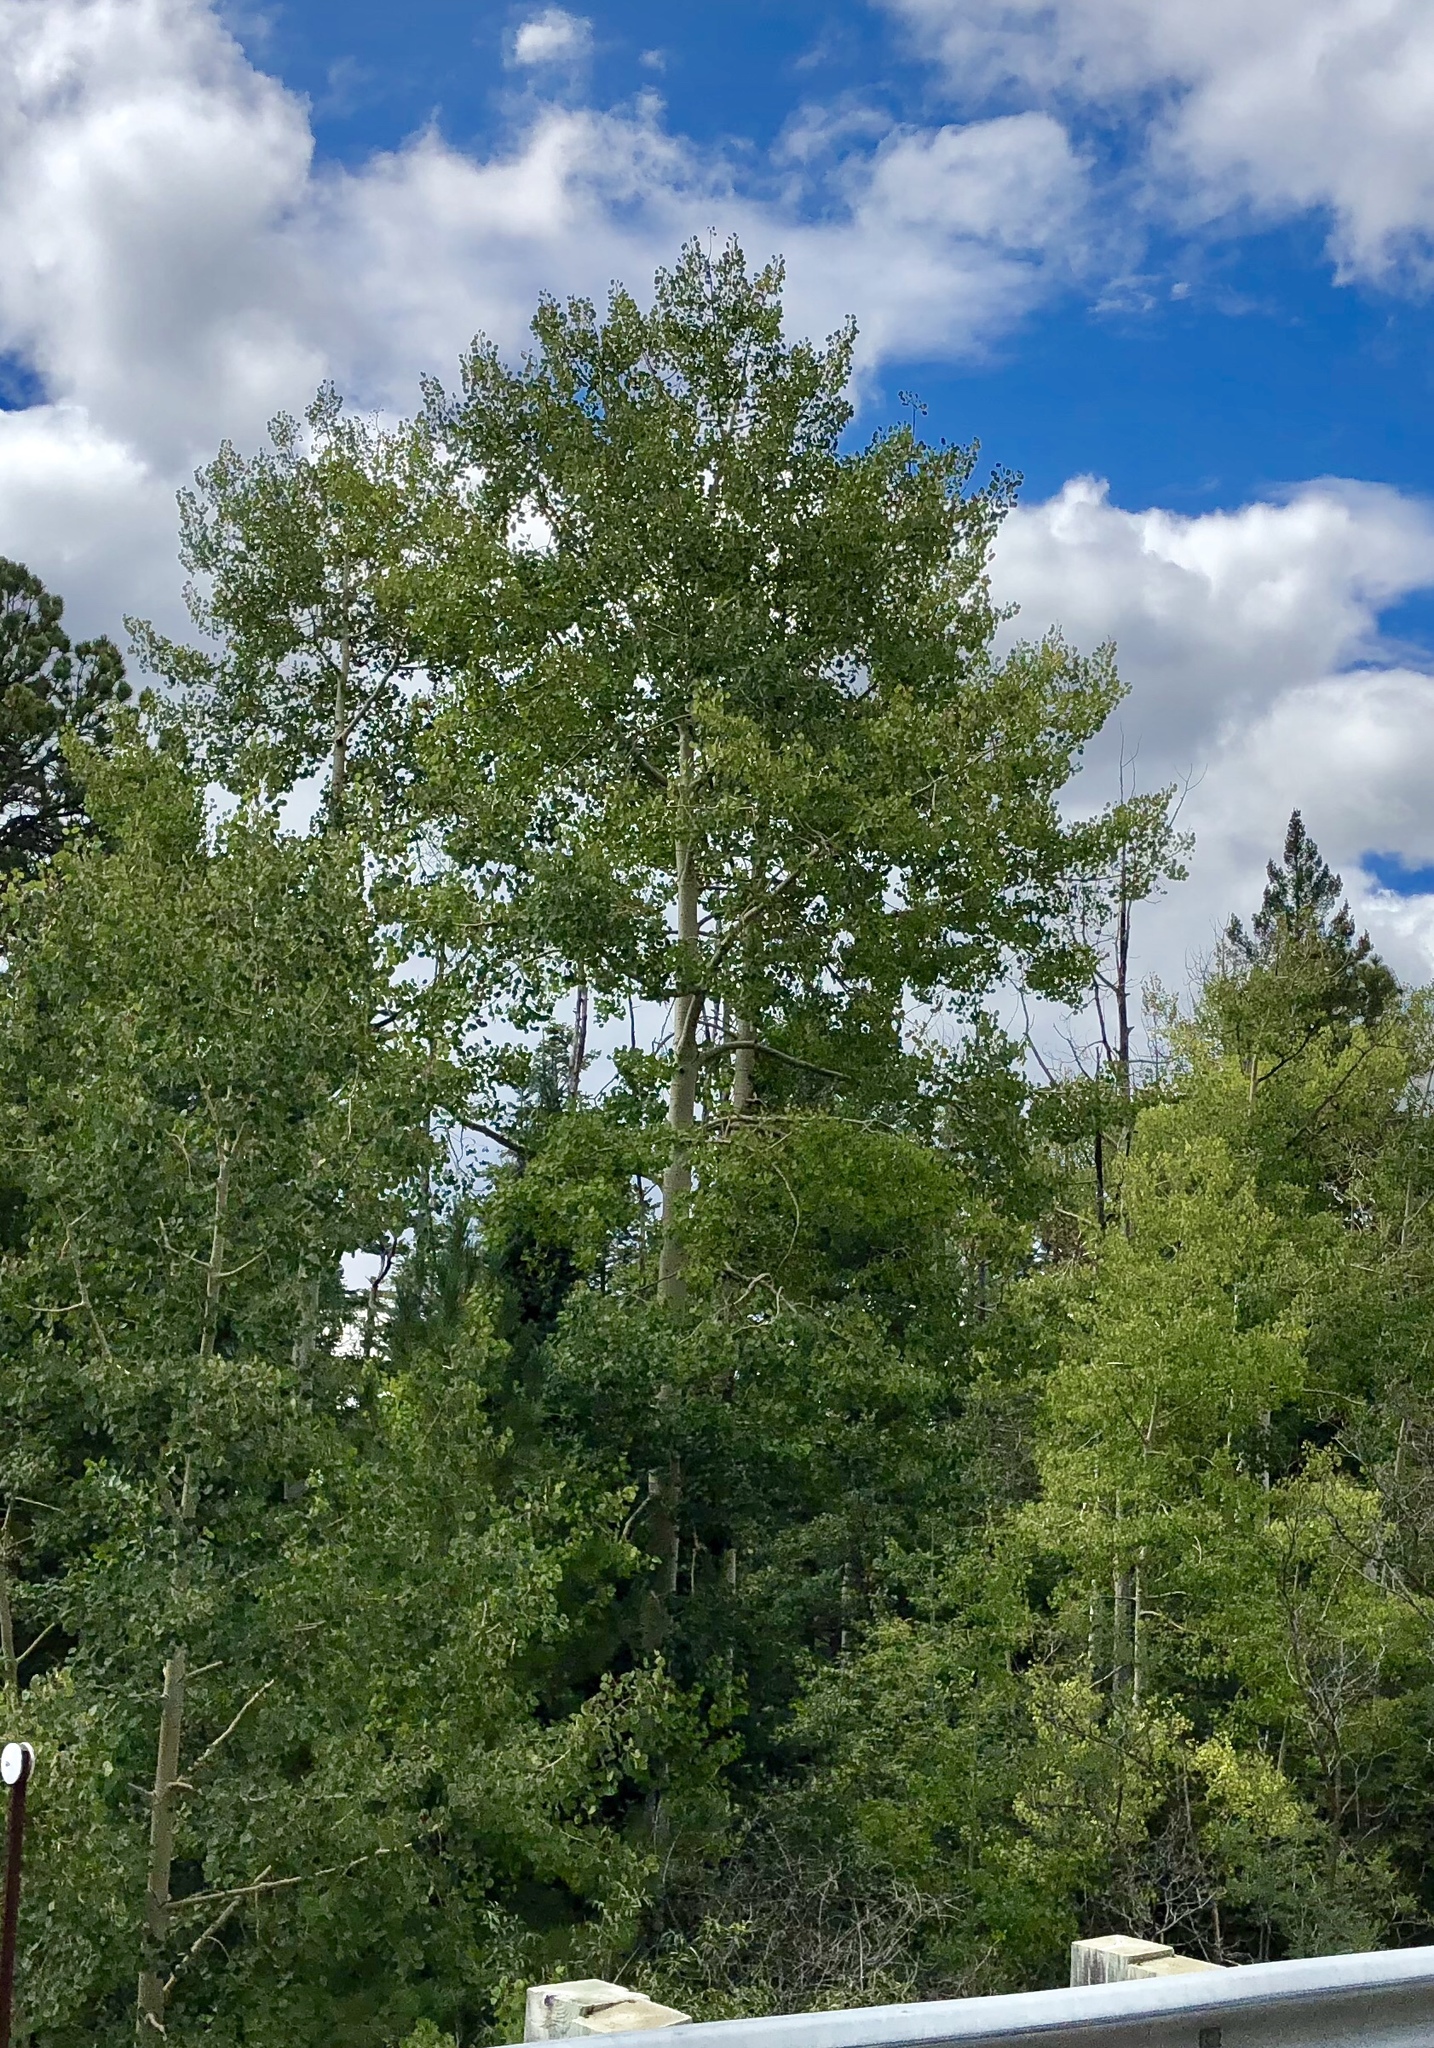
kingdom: Plantae
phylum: Tracheophyta
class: Magnoliopsida
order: Malpighiales
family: Salicaceae
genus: Populus
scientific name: Populus tremuloides
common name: Quaking aspen
